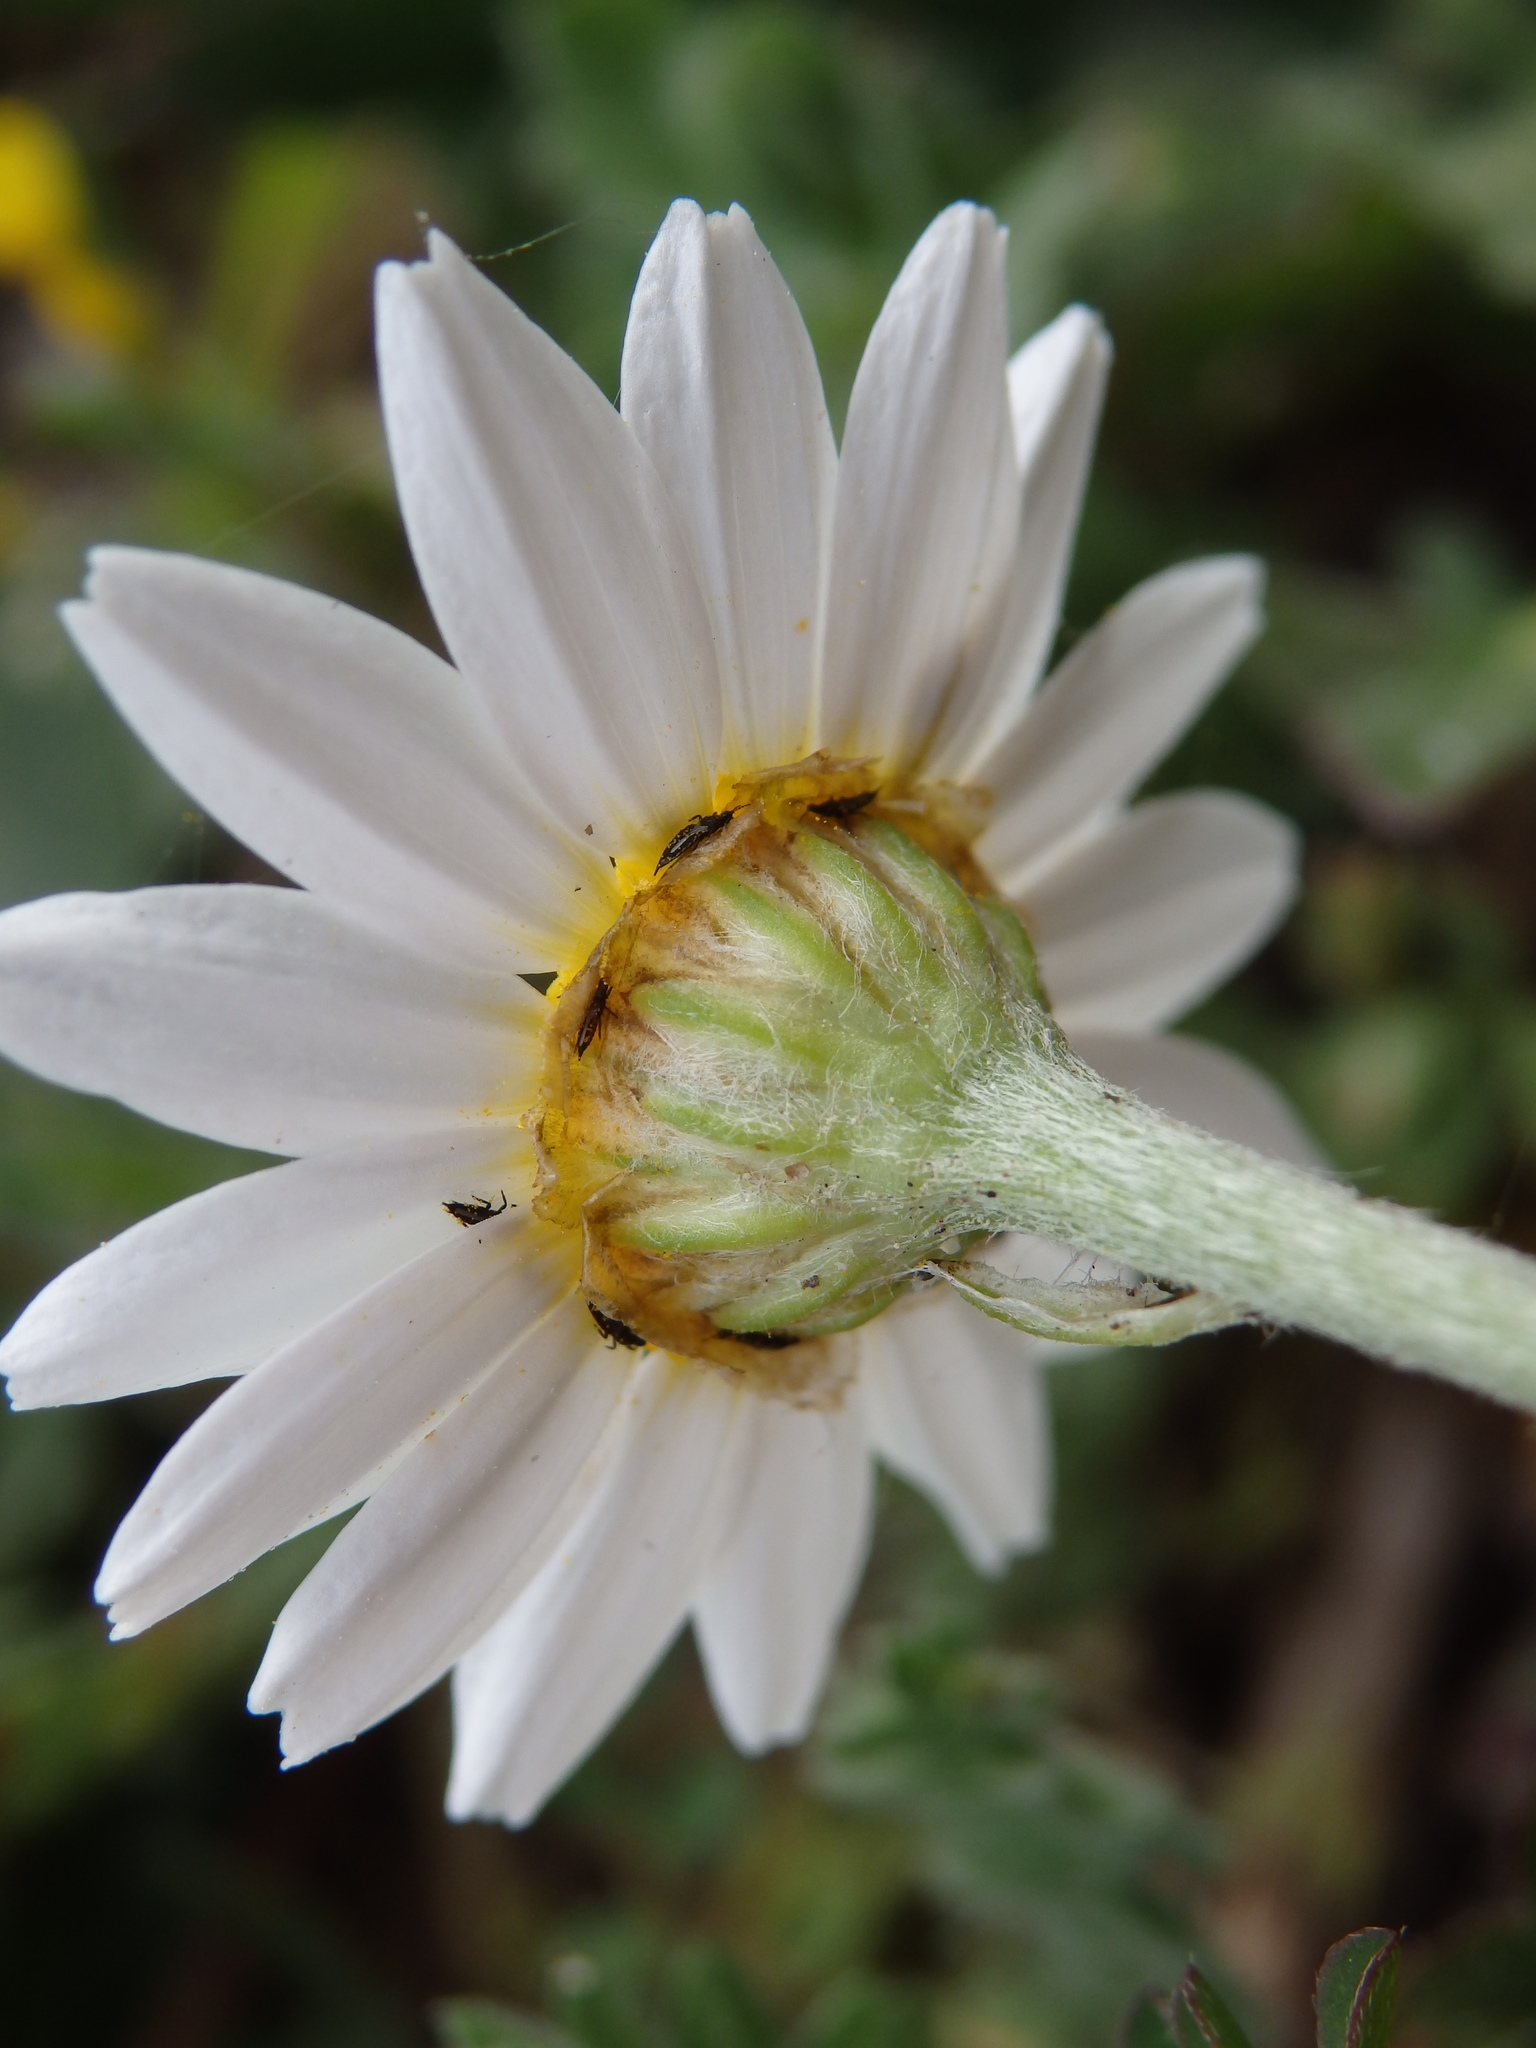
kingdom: Plantae
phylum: Tracheophyta
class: Magnoliopsida
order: Asterales
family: Asteraceae
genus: Anthemis
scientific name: Anthemis cotula
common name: Stinking chamomile
